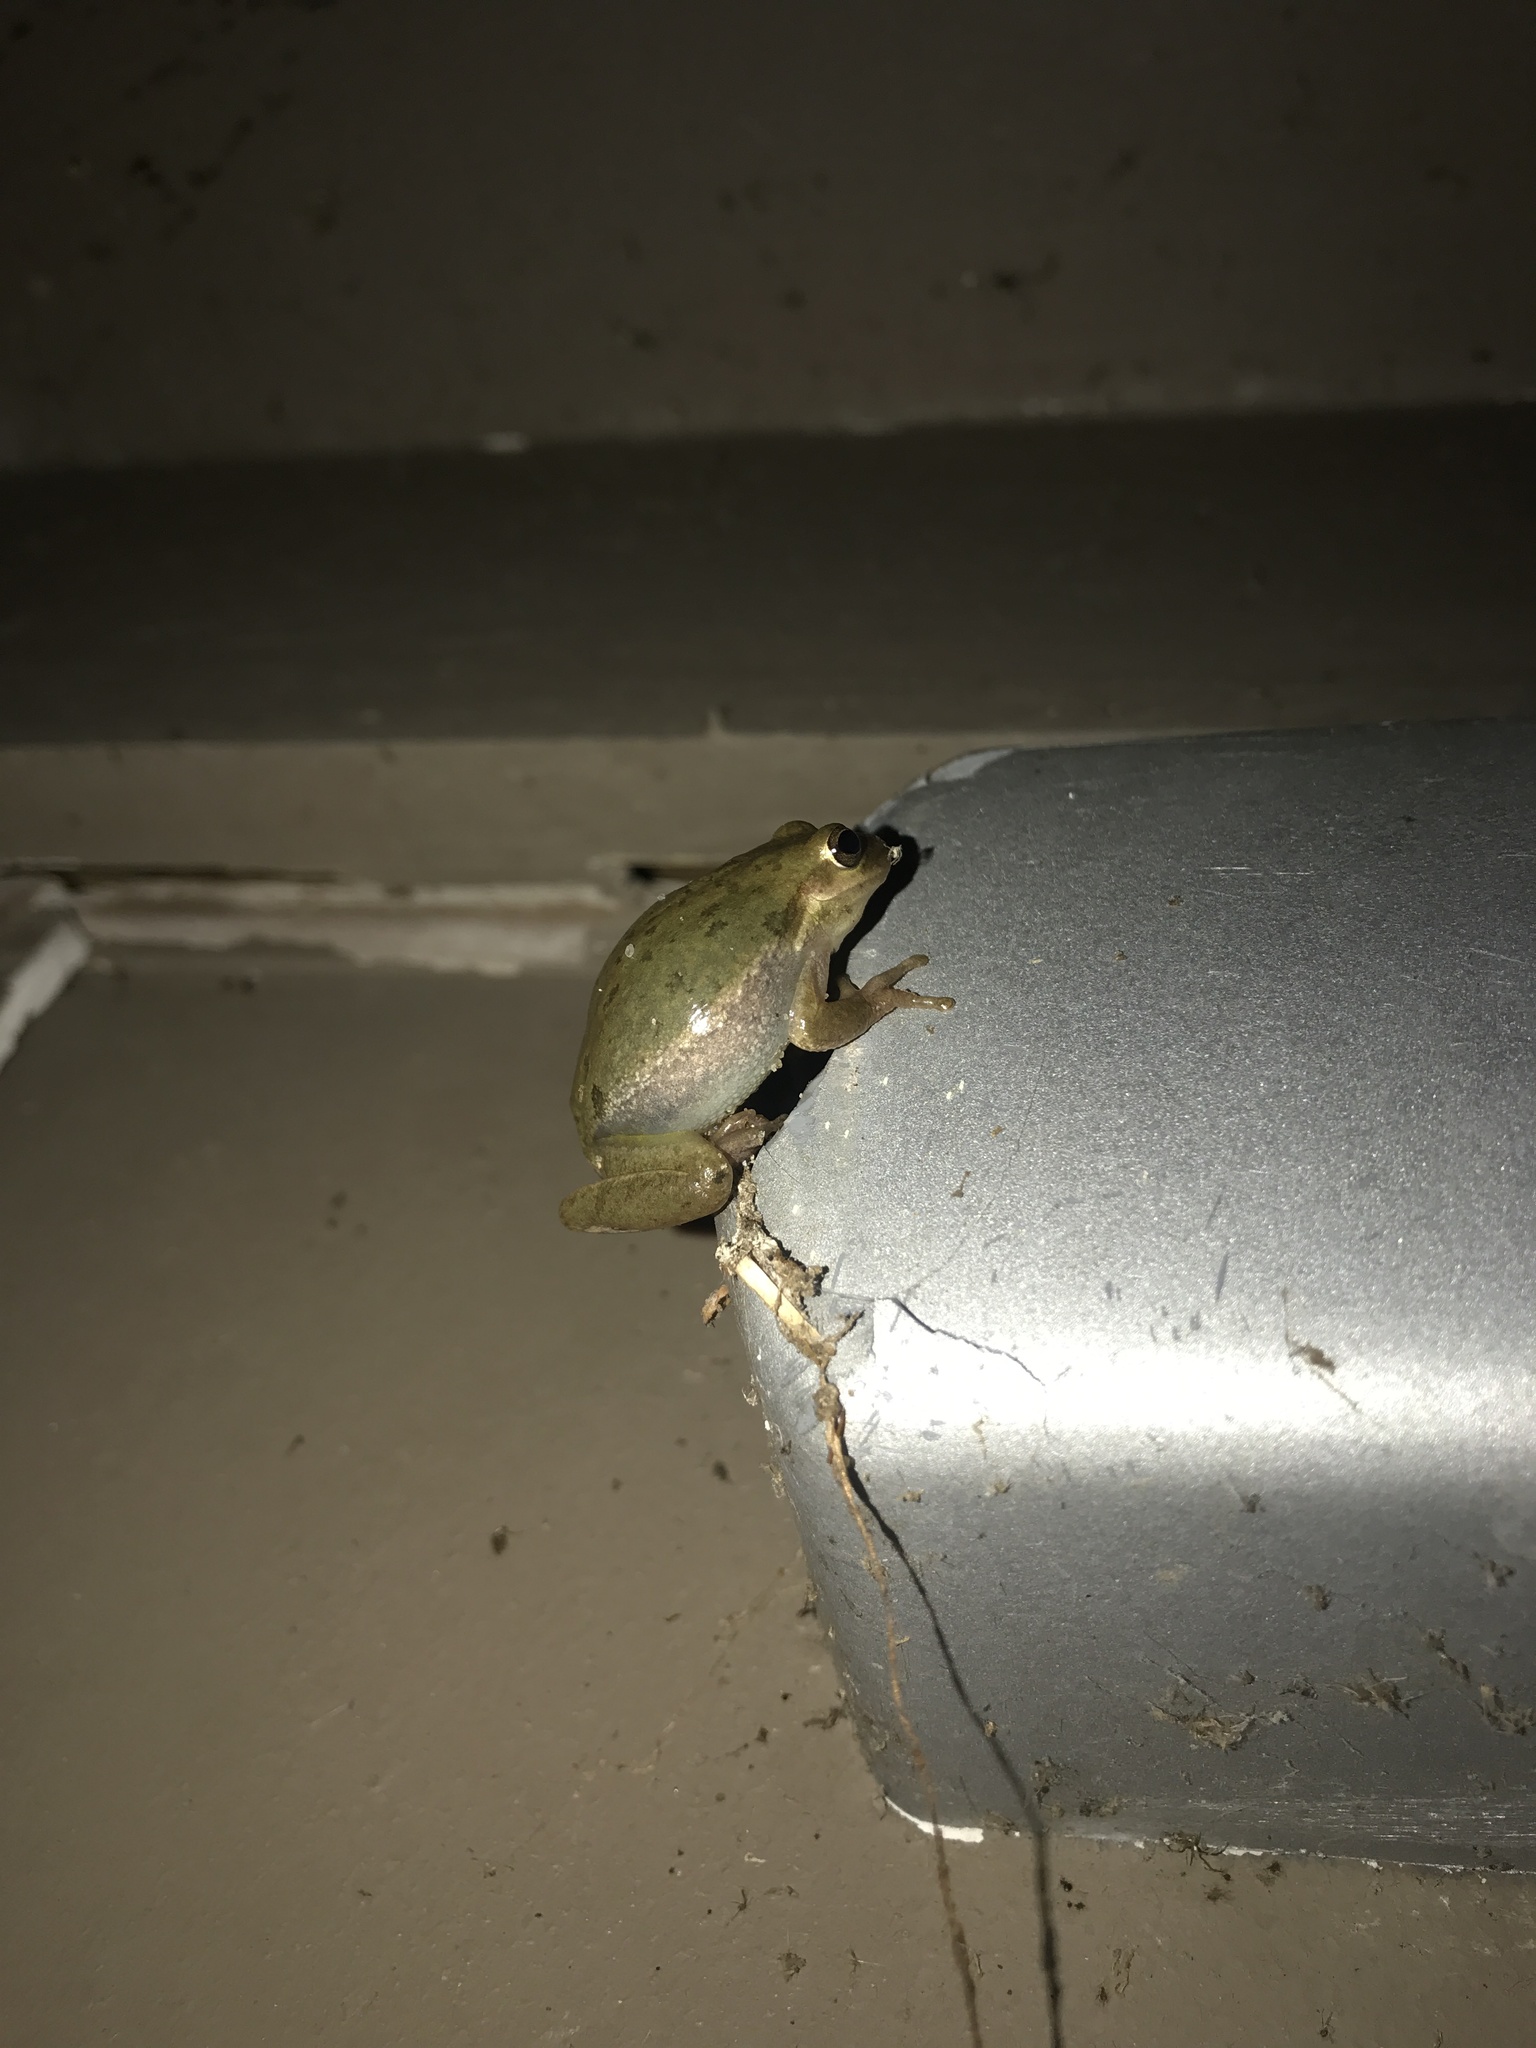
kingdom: Animalia
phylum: Chordata
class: Amphibia
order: Anura
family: Hylidae
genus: Dryophytes
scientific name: Dryophytes squirellus
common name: Squirrel treefrog
